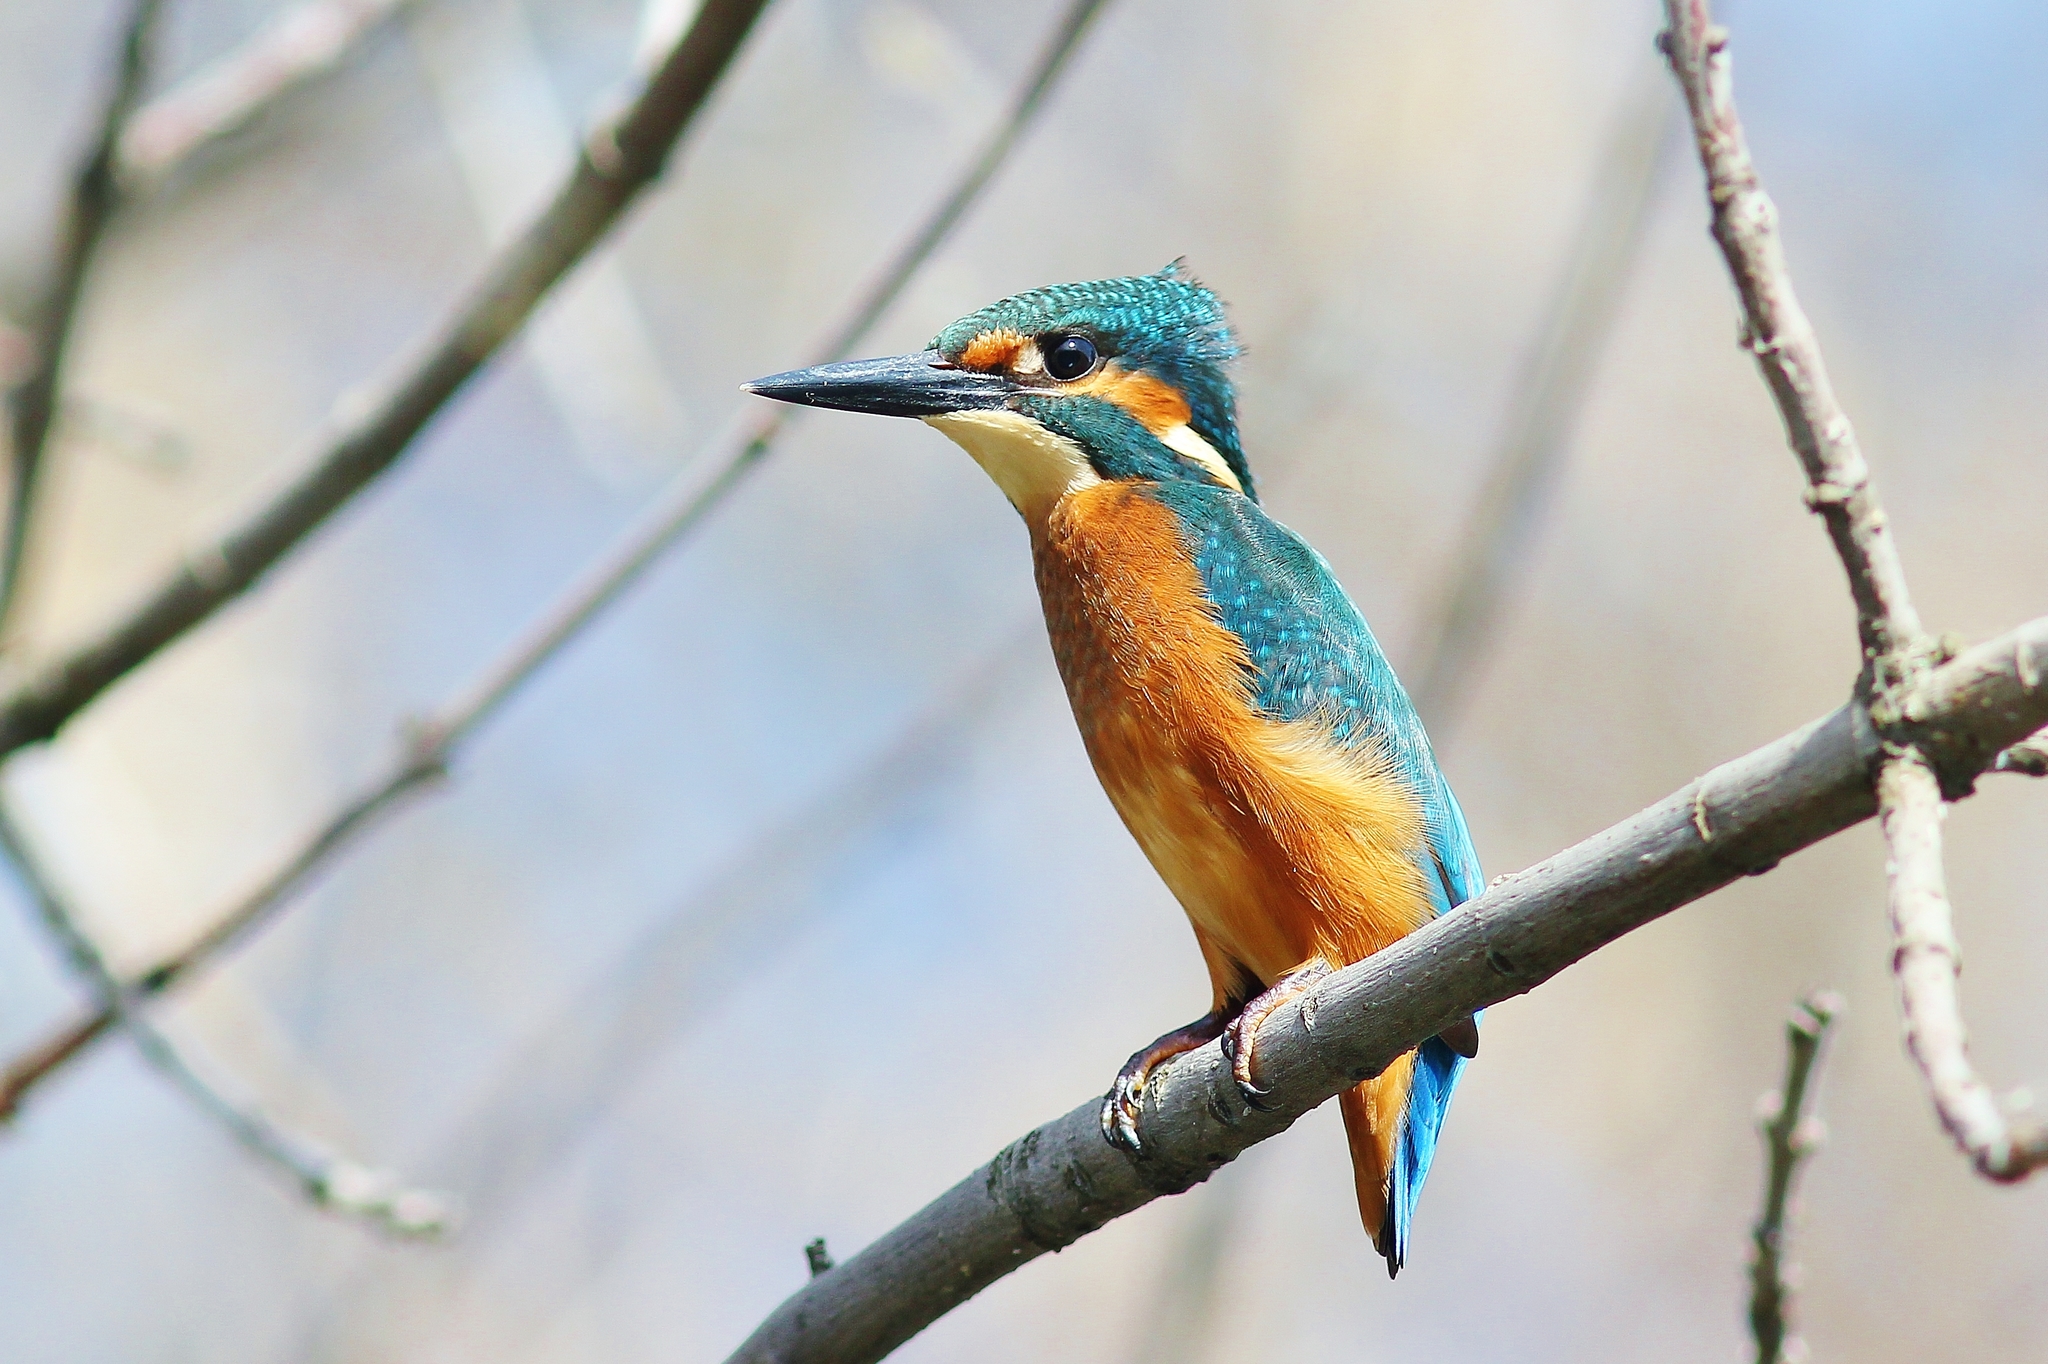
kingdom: Animalia
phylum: Chordata
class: Aves
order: Coraciiformes
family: Alcedinidae
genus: Alcedo
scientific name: Alcedo atthis
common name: Common kingfisher
